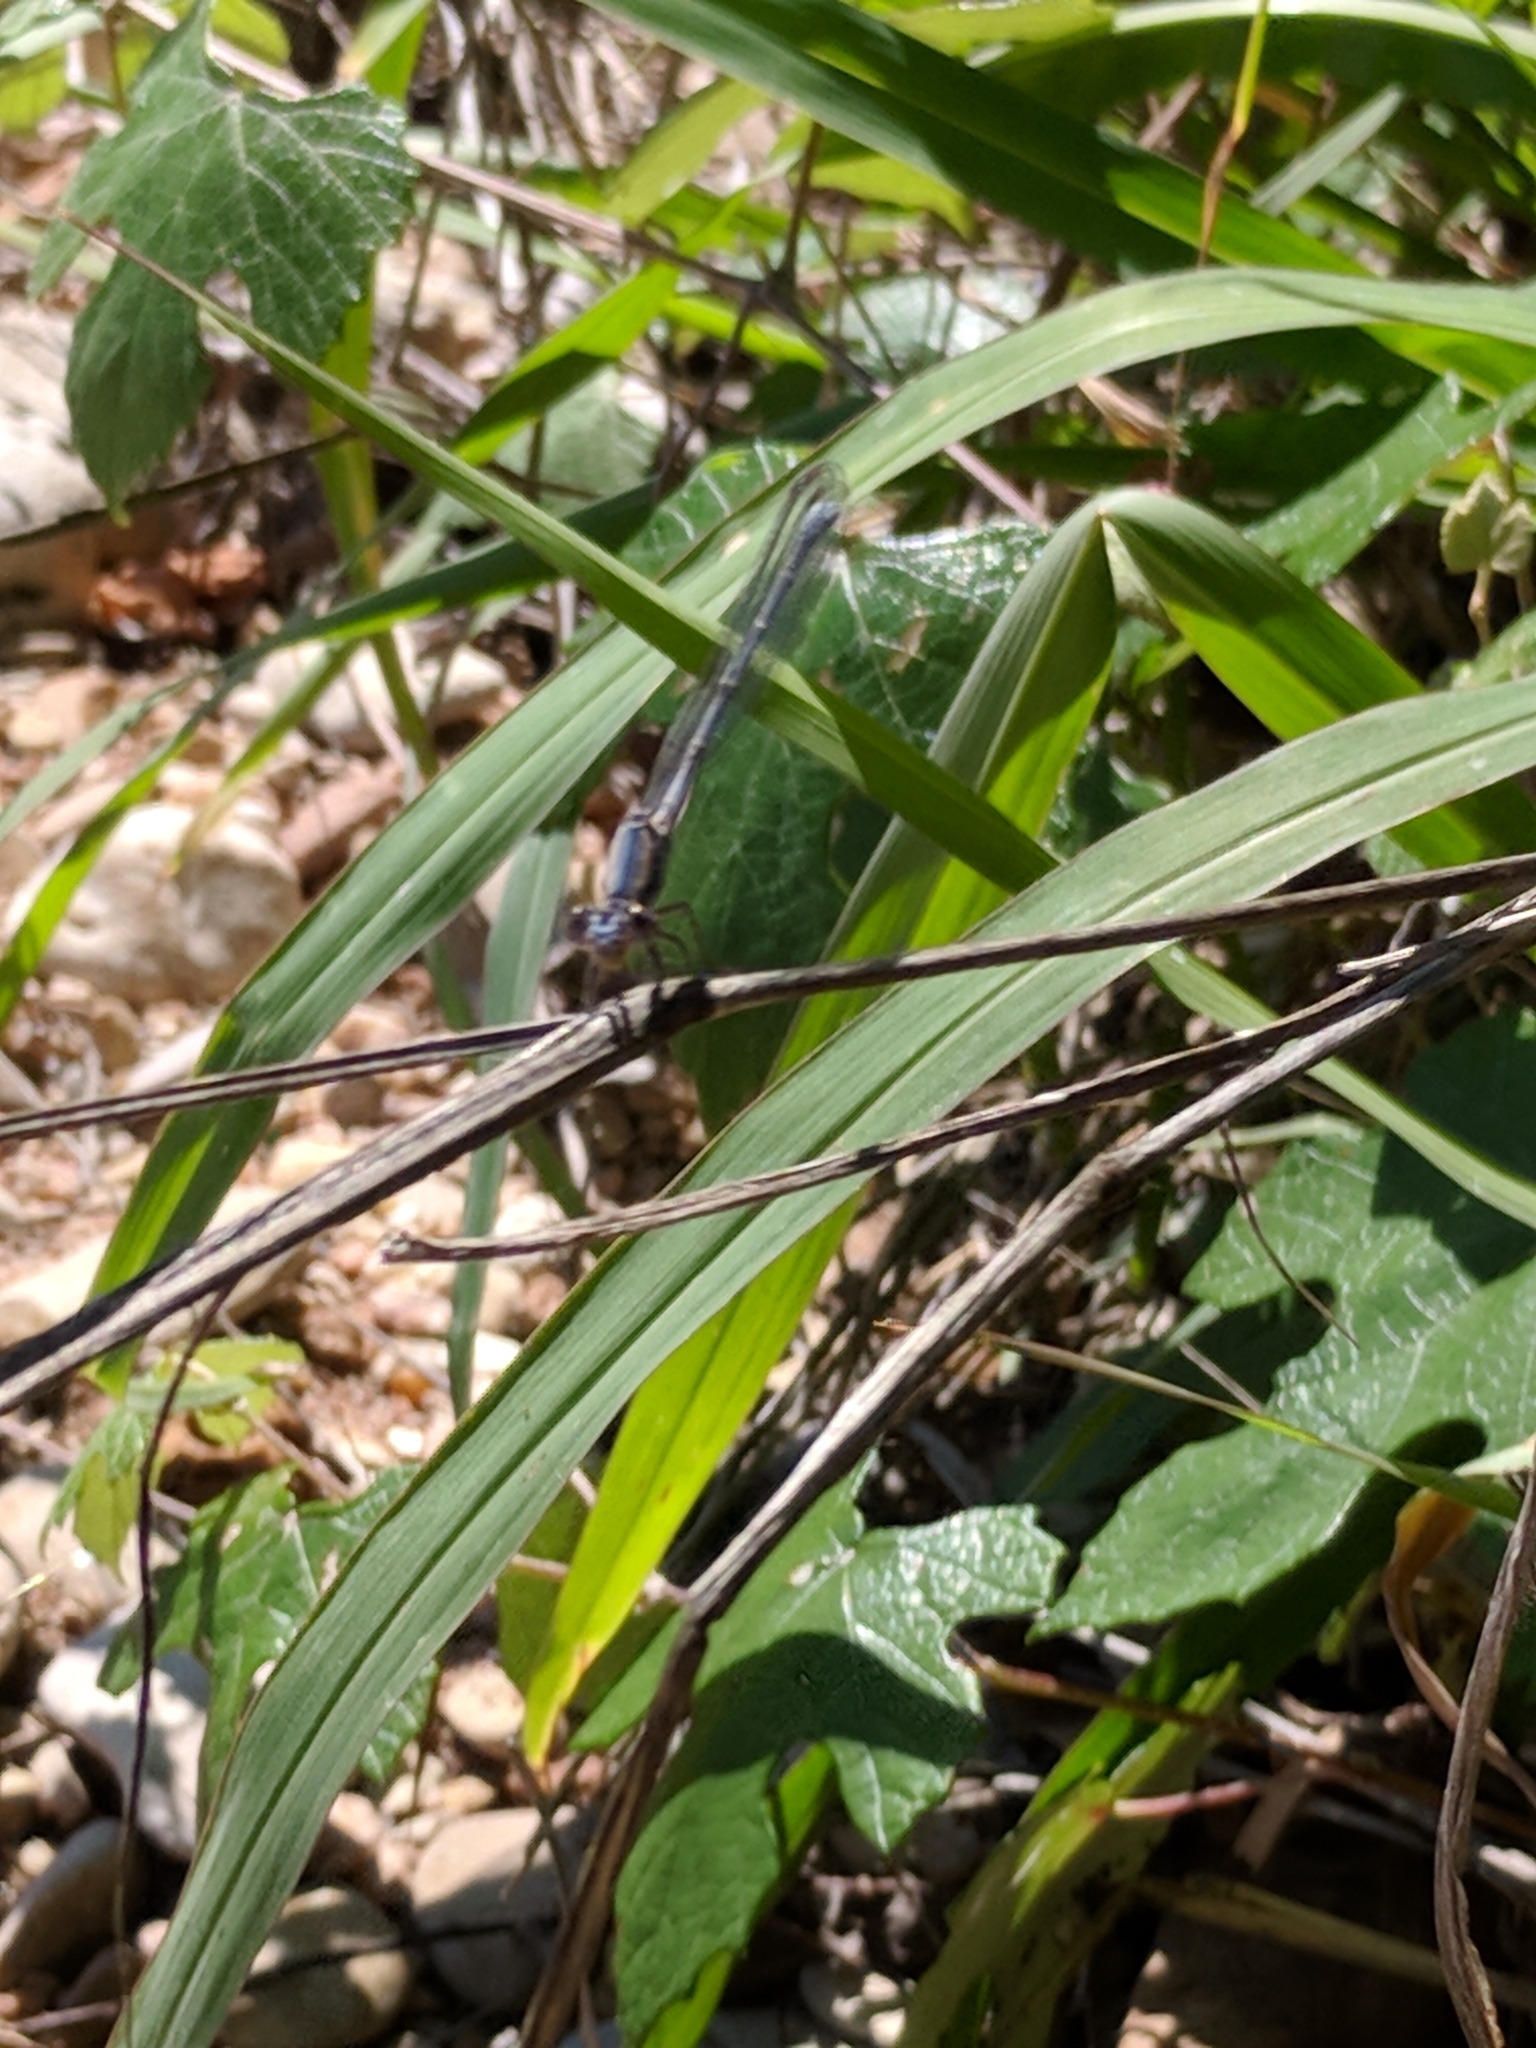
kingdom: Animalia
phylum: Arthropoda
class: Insecta
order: Odonata
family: Coenagrionidae
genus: Argia
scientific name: Argia moesta
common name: Powdered dancer
